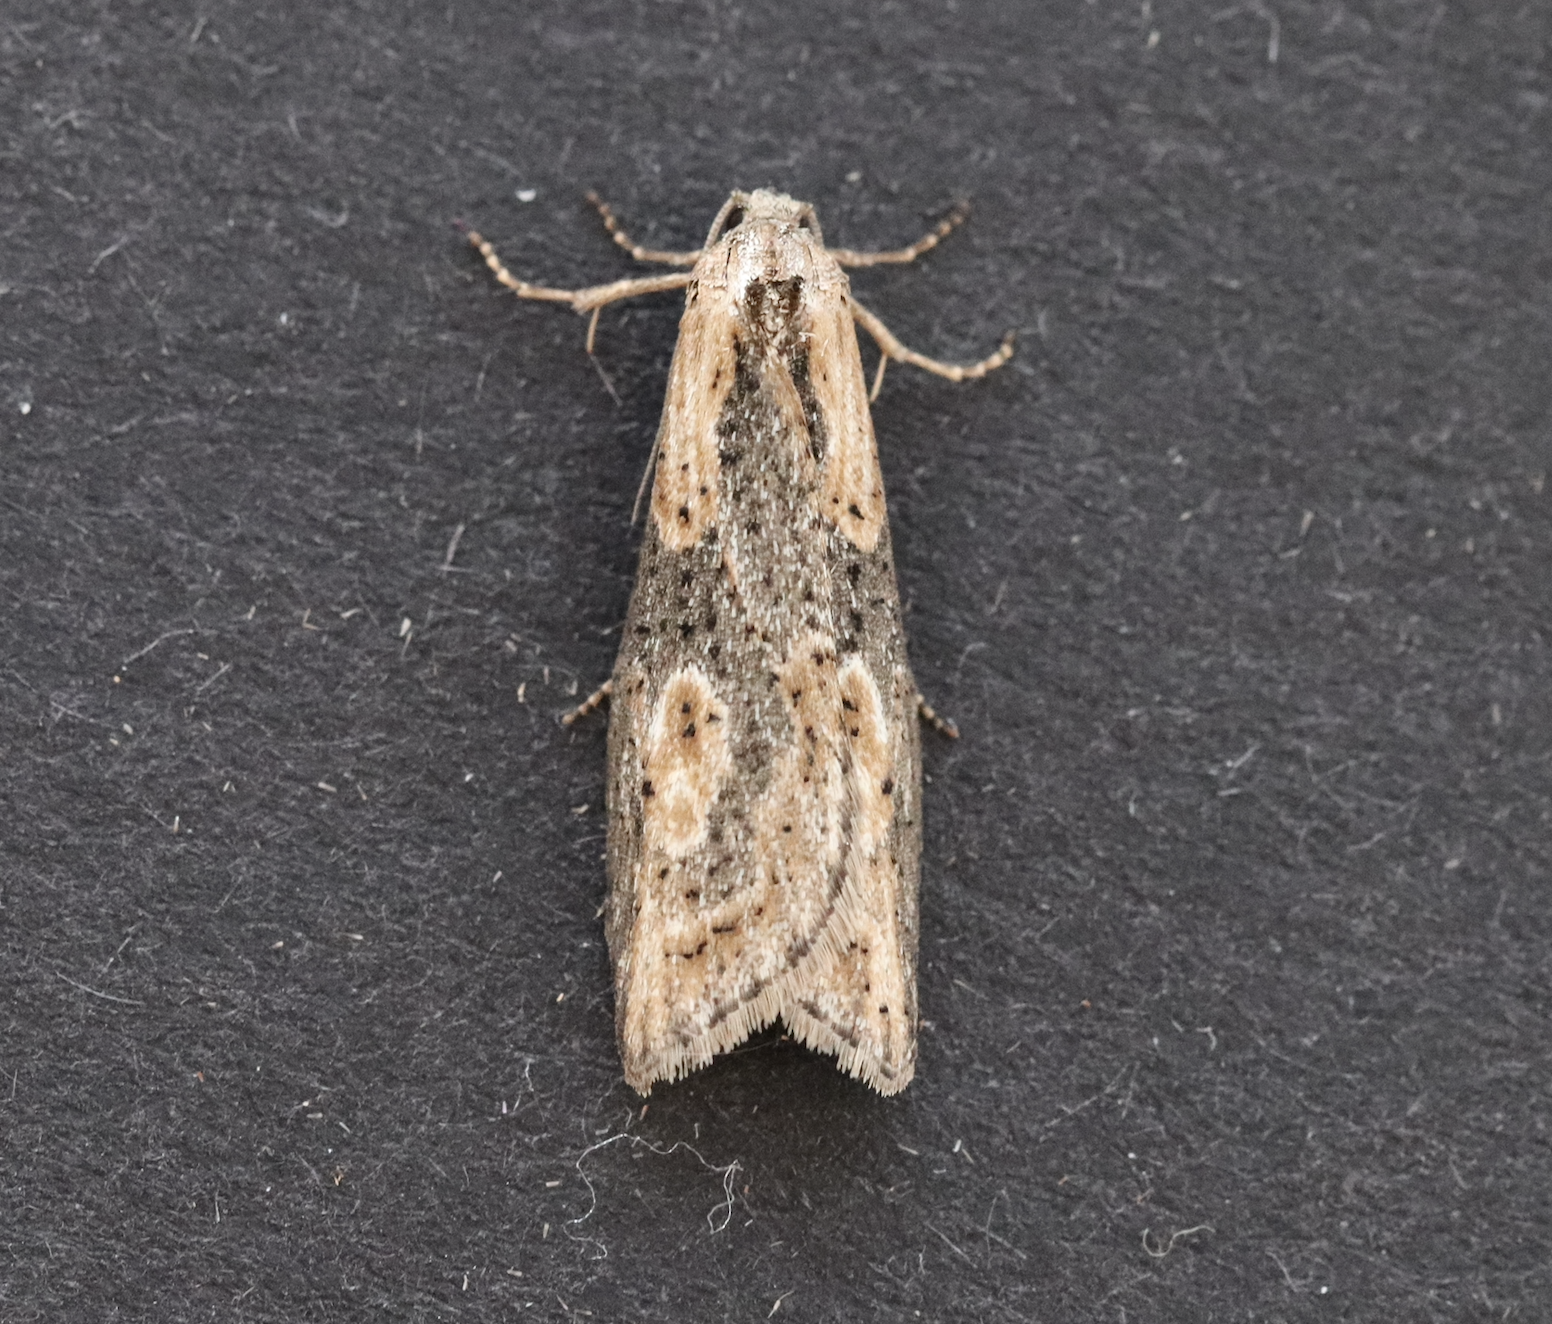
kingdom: Animalia
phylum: Arthropoda
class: Insecta
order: Lepidoptera
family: Tortricidae
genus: Doloploca
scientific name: Doloploca punctulana
